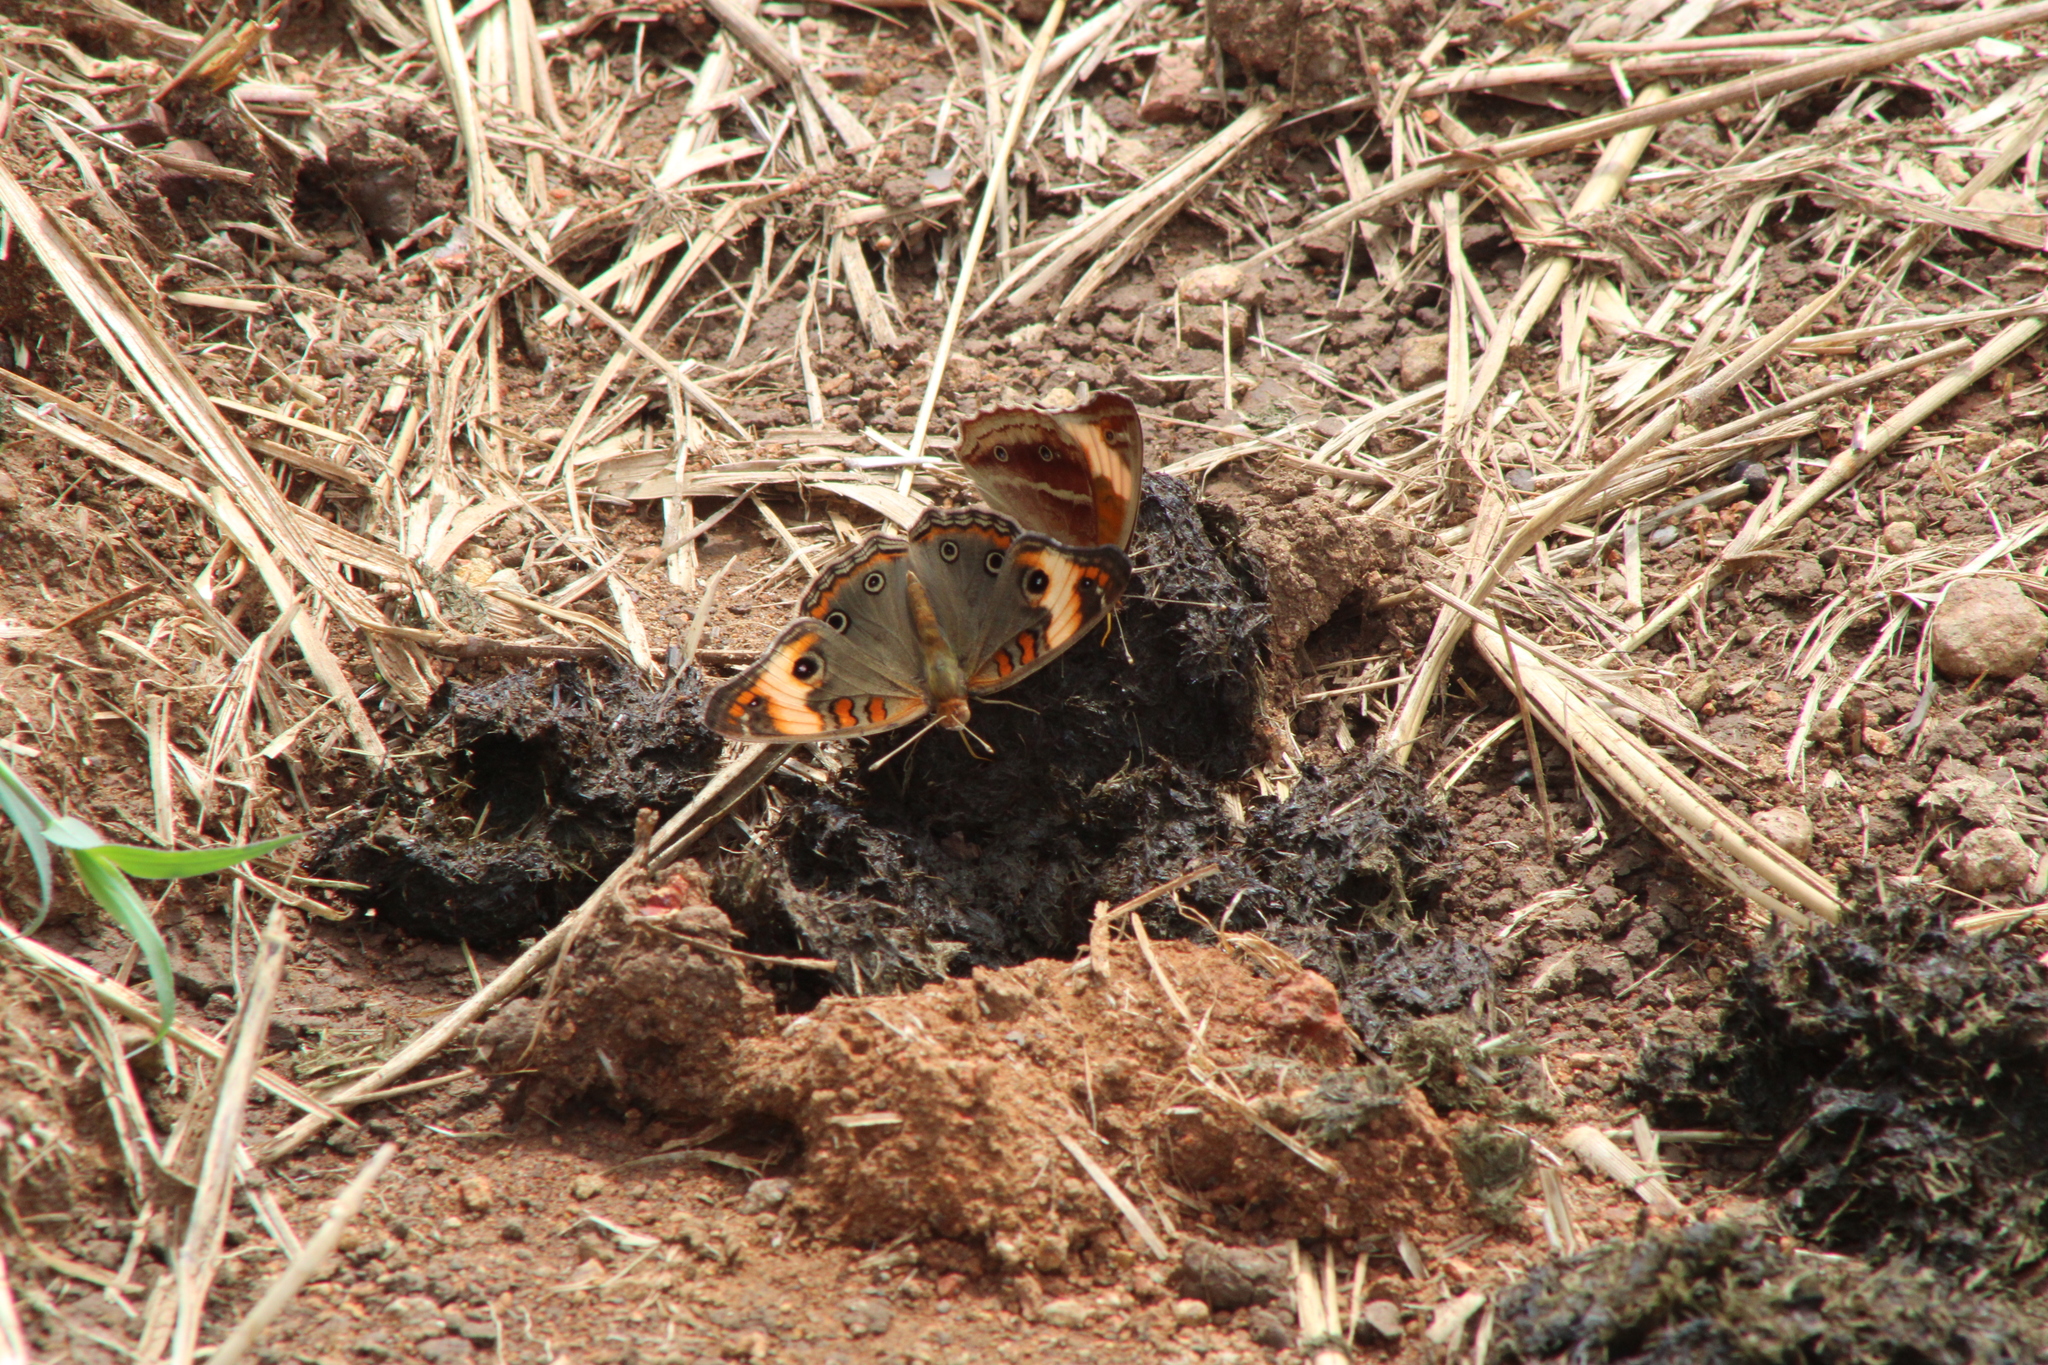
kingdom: Animalia
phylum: Arthropoda
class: Insecta
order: Lepidoptera
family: Nymphalidae
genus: Junonia
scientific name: Junonia lavinia
